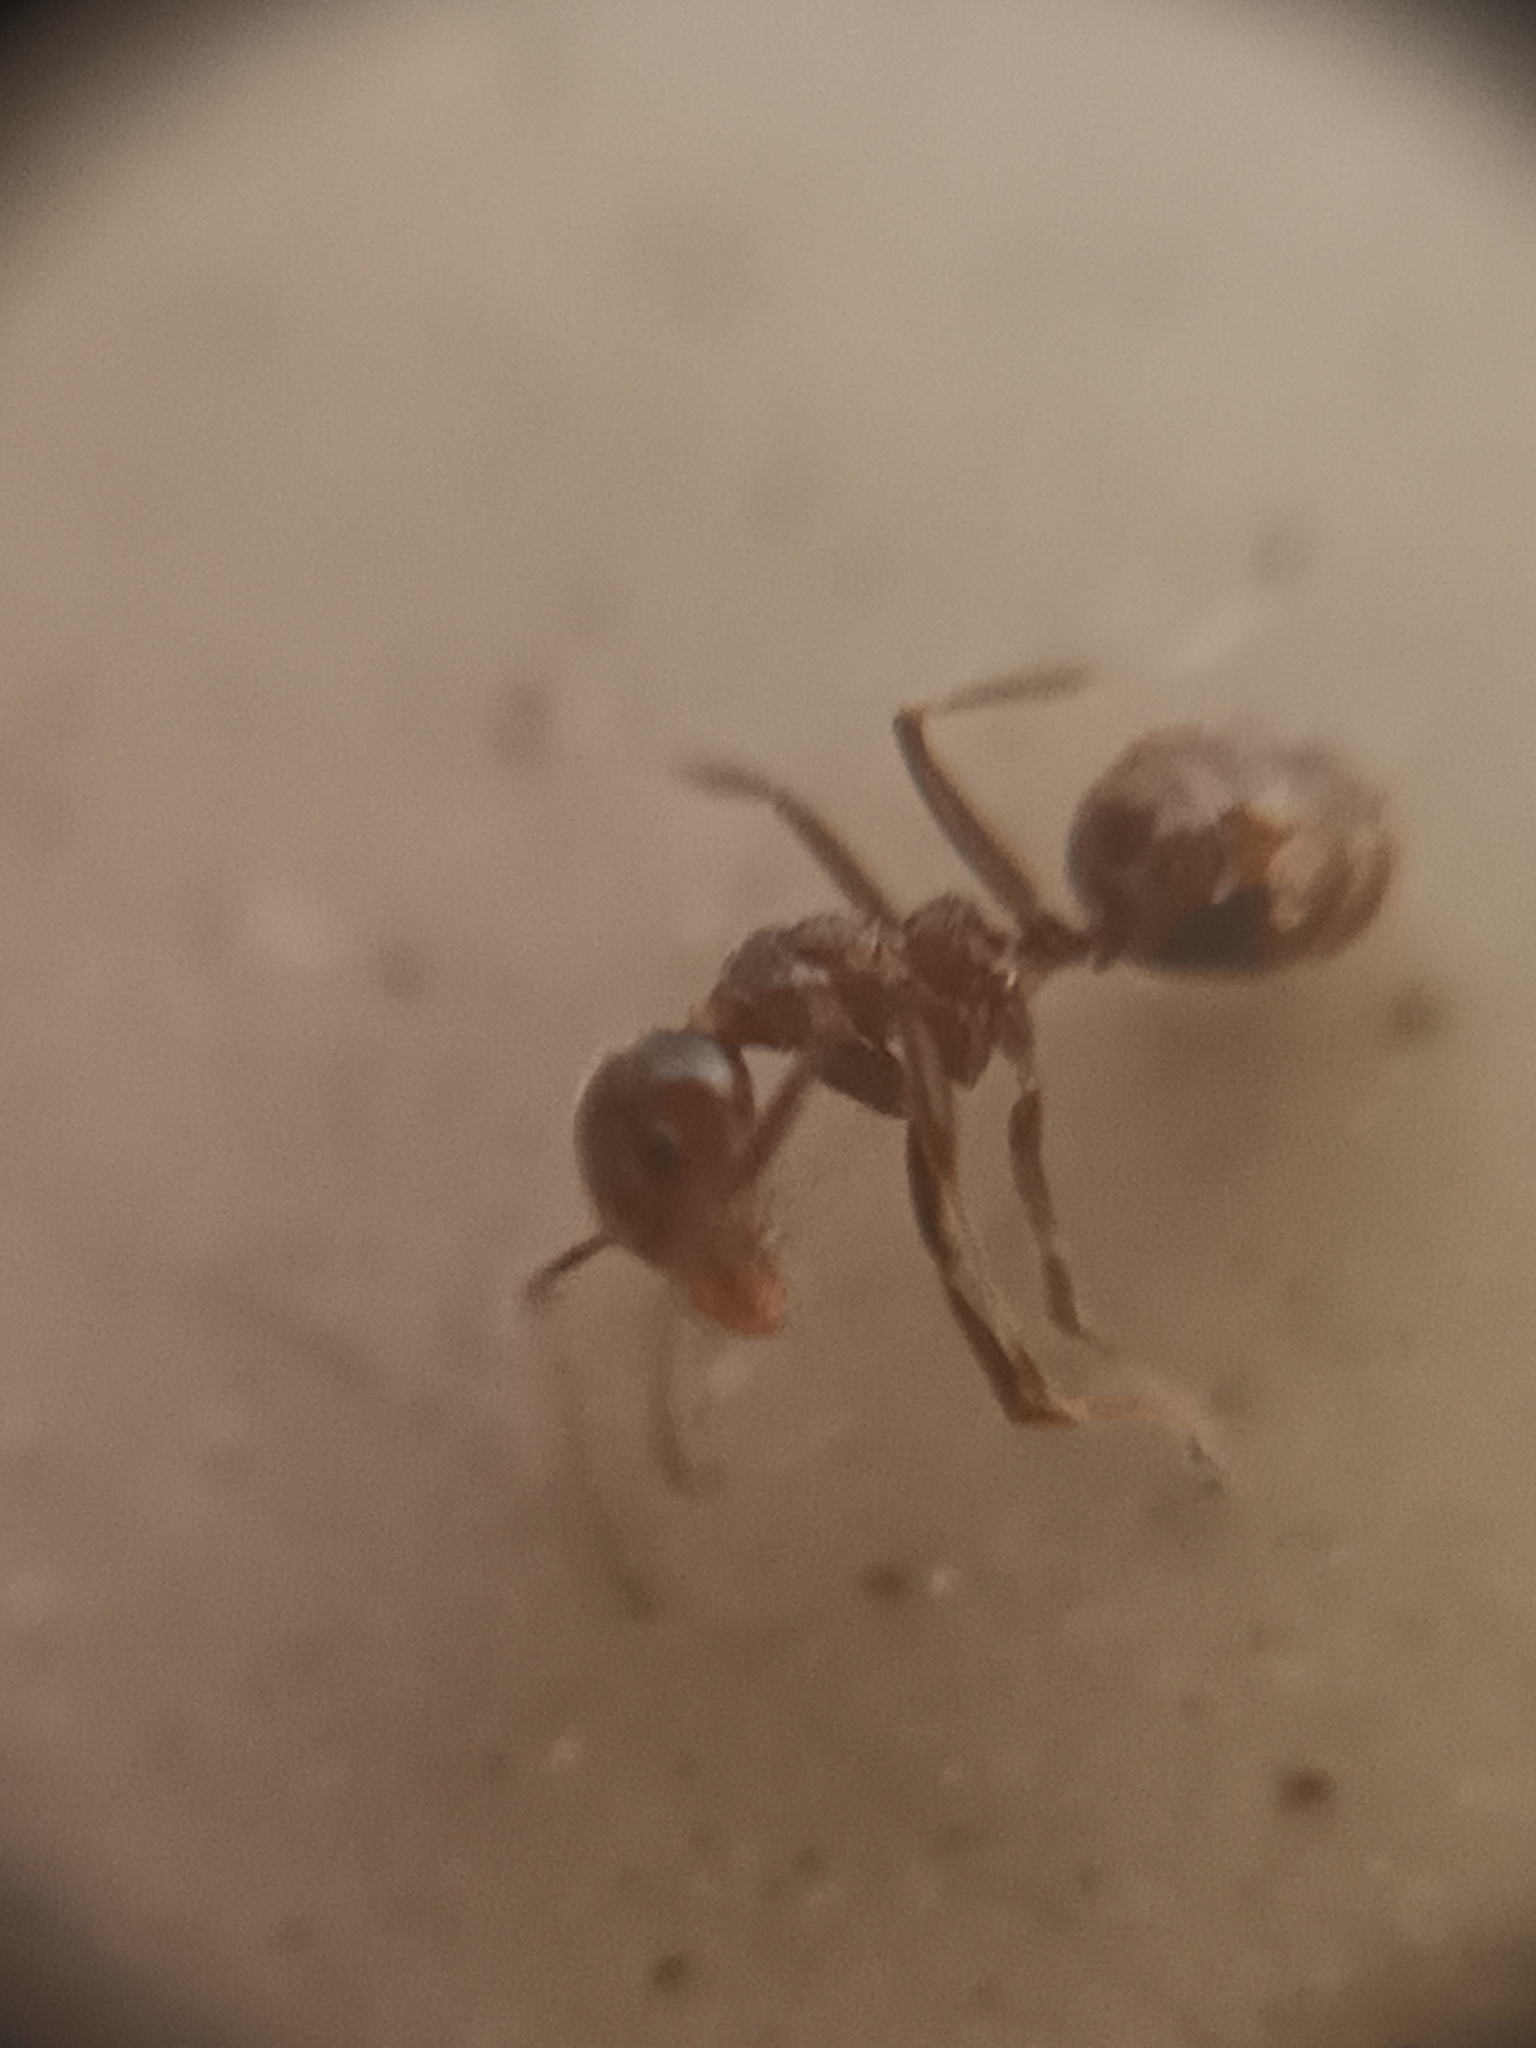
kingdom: Animalia
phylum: Arthropoda
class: Insecta
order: Hymenoptera
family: Formicidae
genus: Dolichoderus
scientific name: Dolichoderus taprobanae
